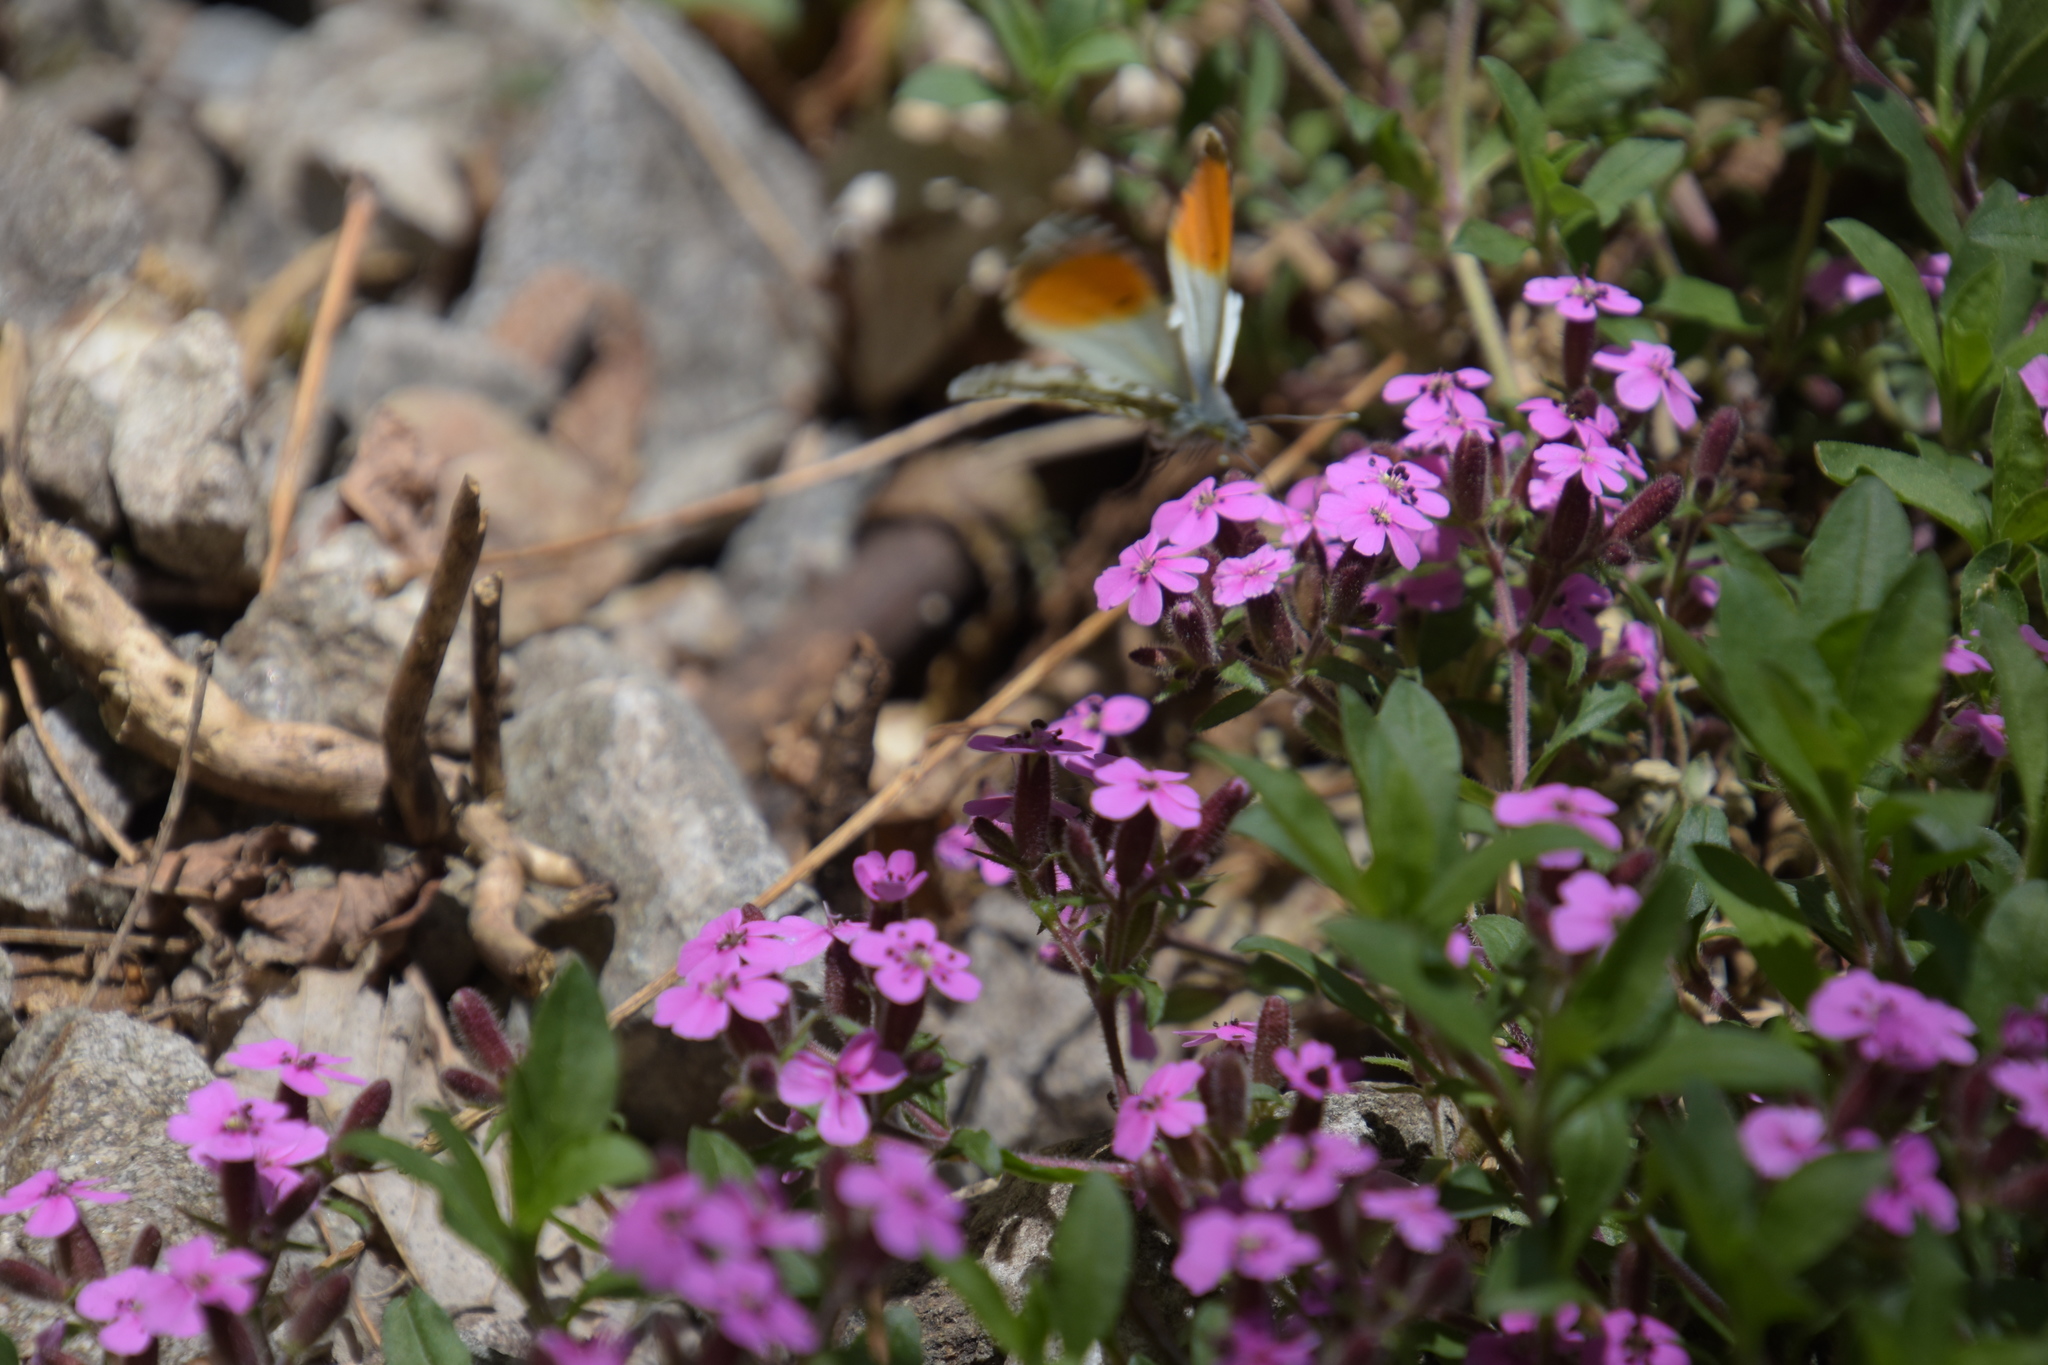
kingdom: Animalia
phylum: Arthropoda
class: Insecta
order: Lepidoptera
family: Pieridae
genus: Anthocharis
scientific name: Anthocharis cardamines
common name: Orange-tip
